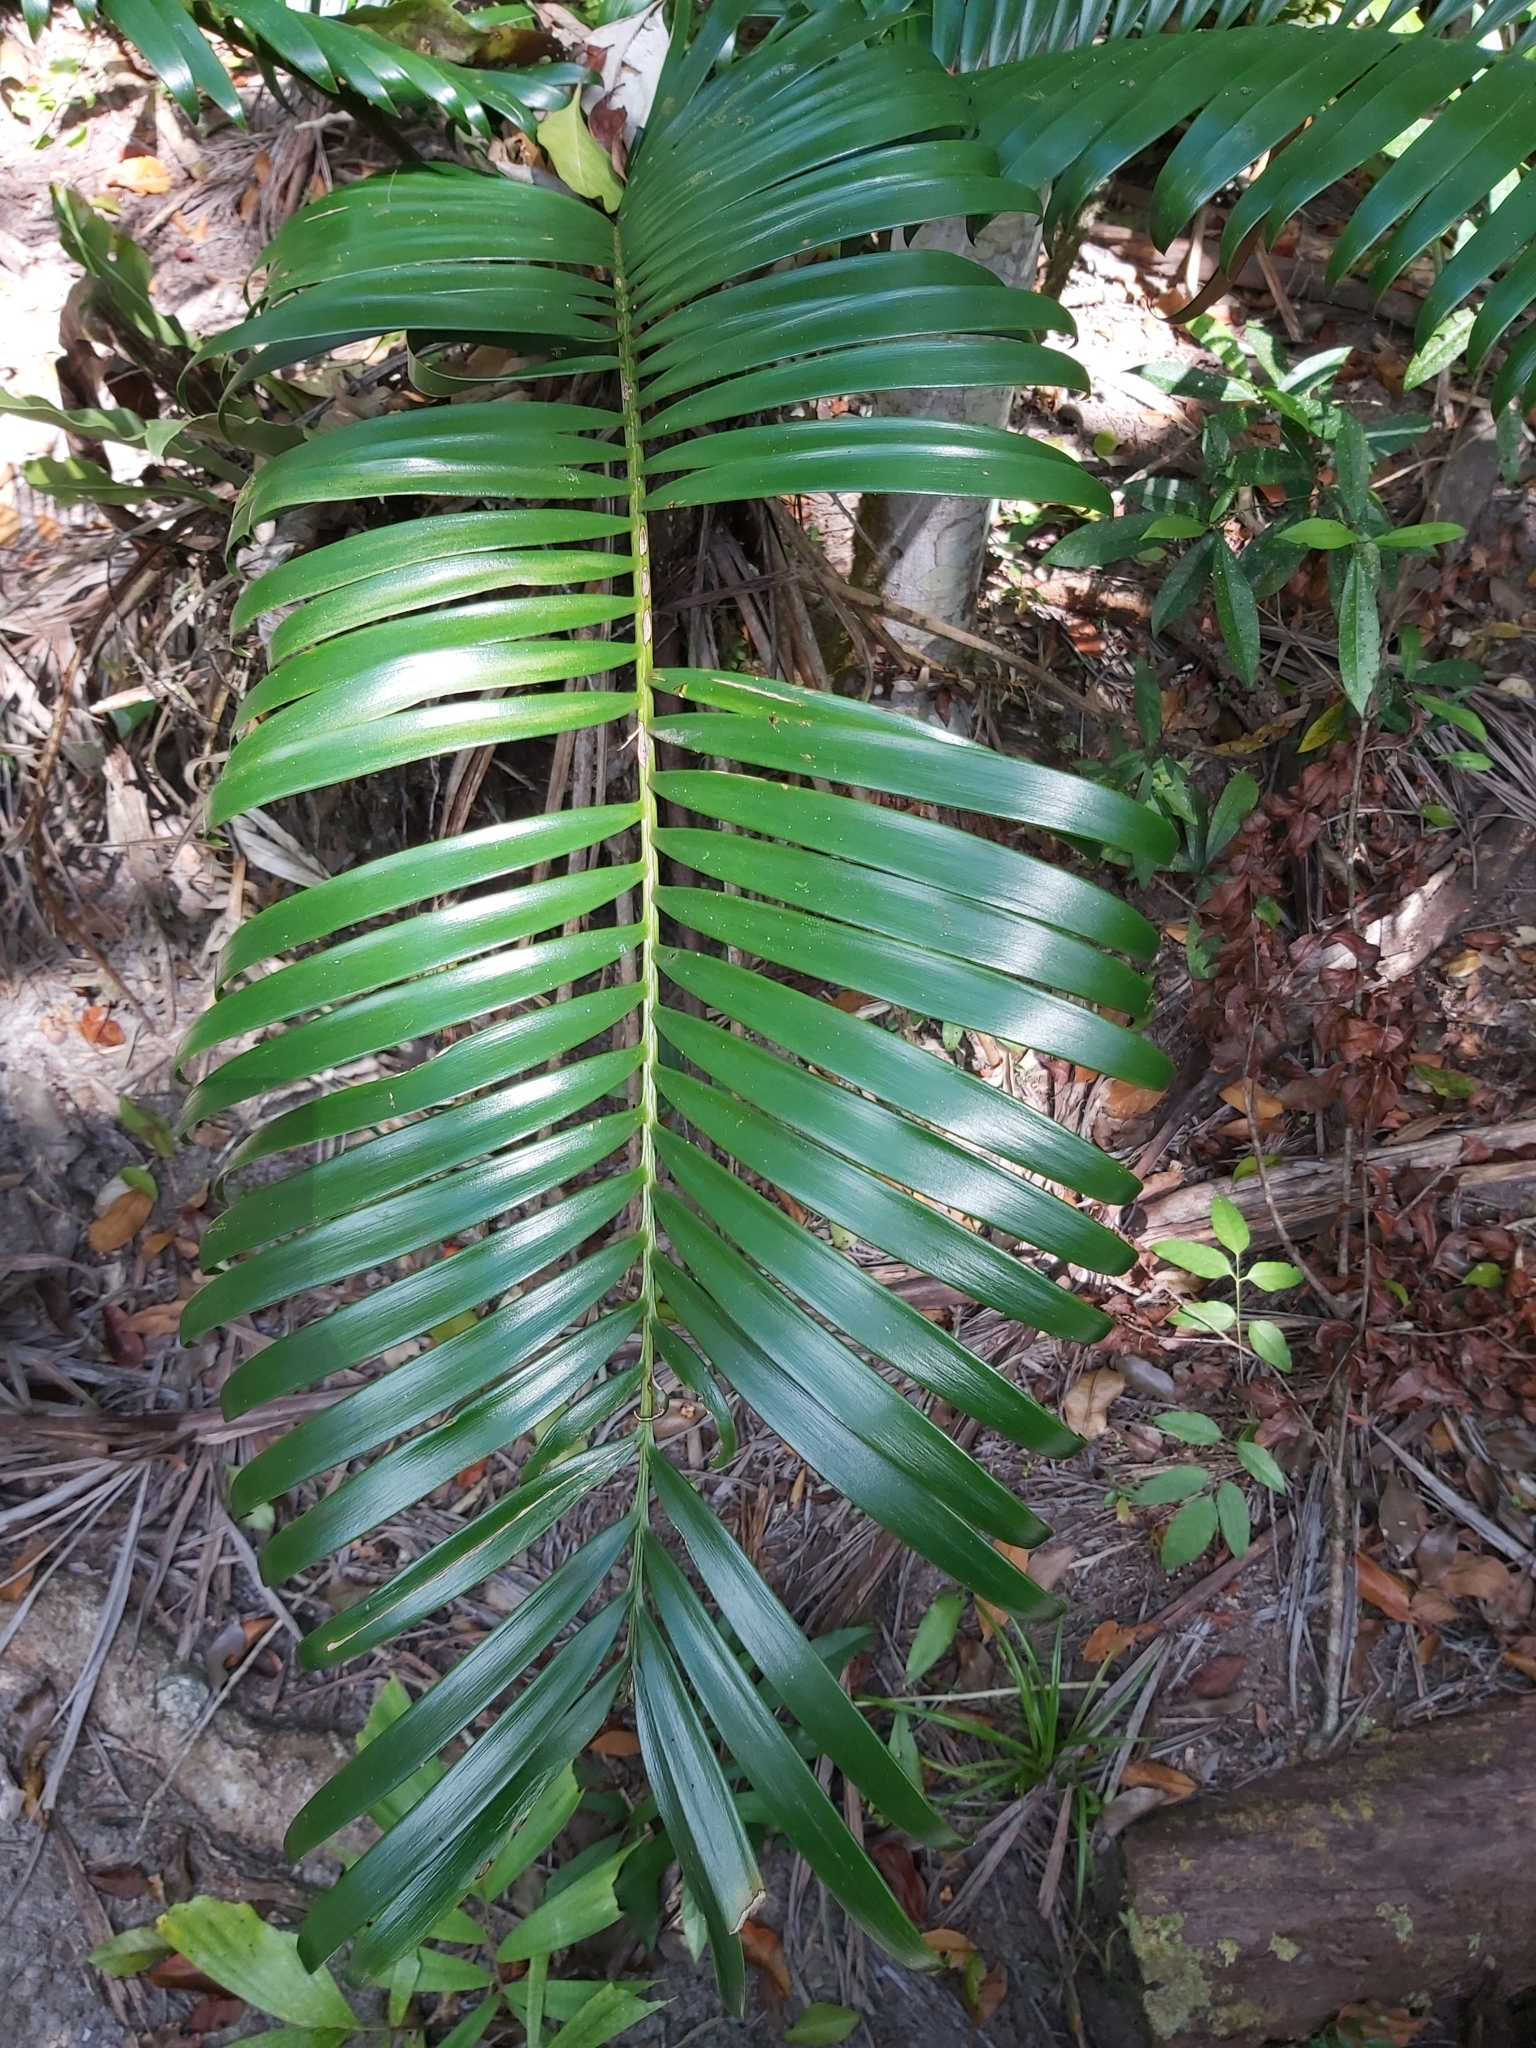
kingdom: Plantae
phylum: Tracheophyta
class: Cycadopsida
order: Cycadales
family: Zamiaceae
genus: Lepidozamia
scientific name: Lepidozamia hopei
